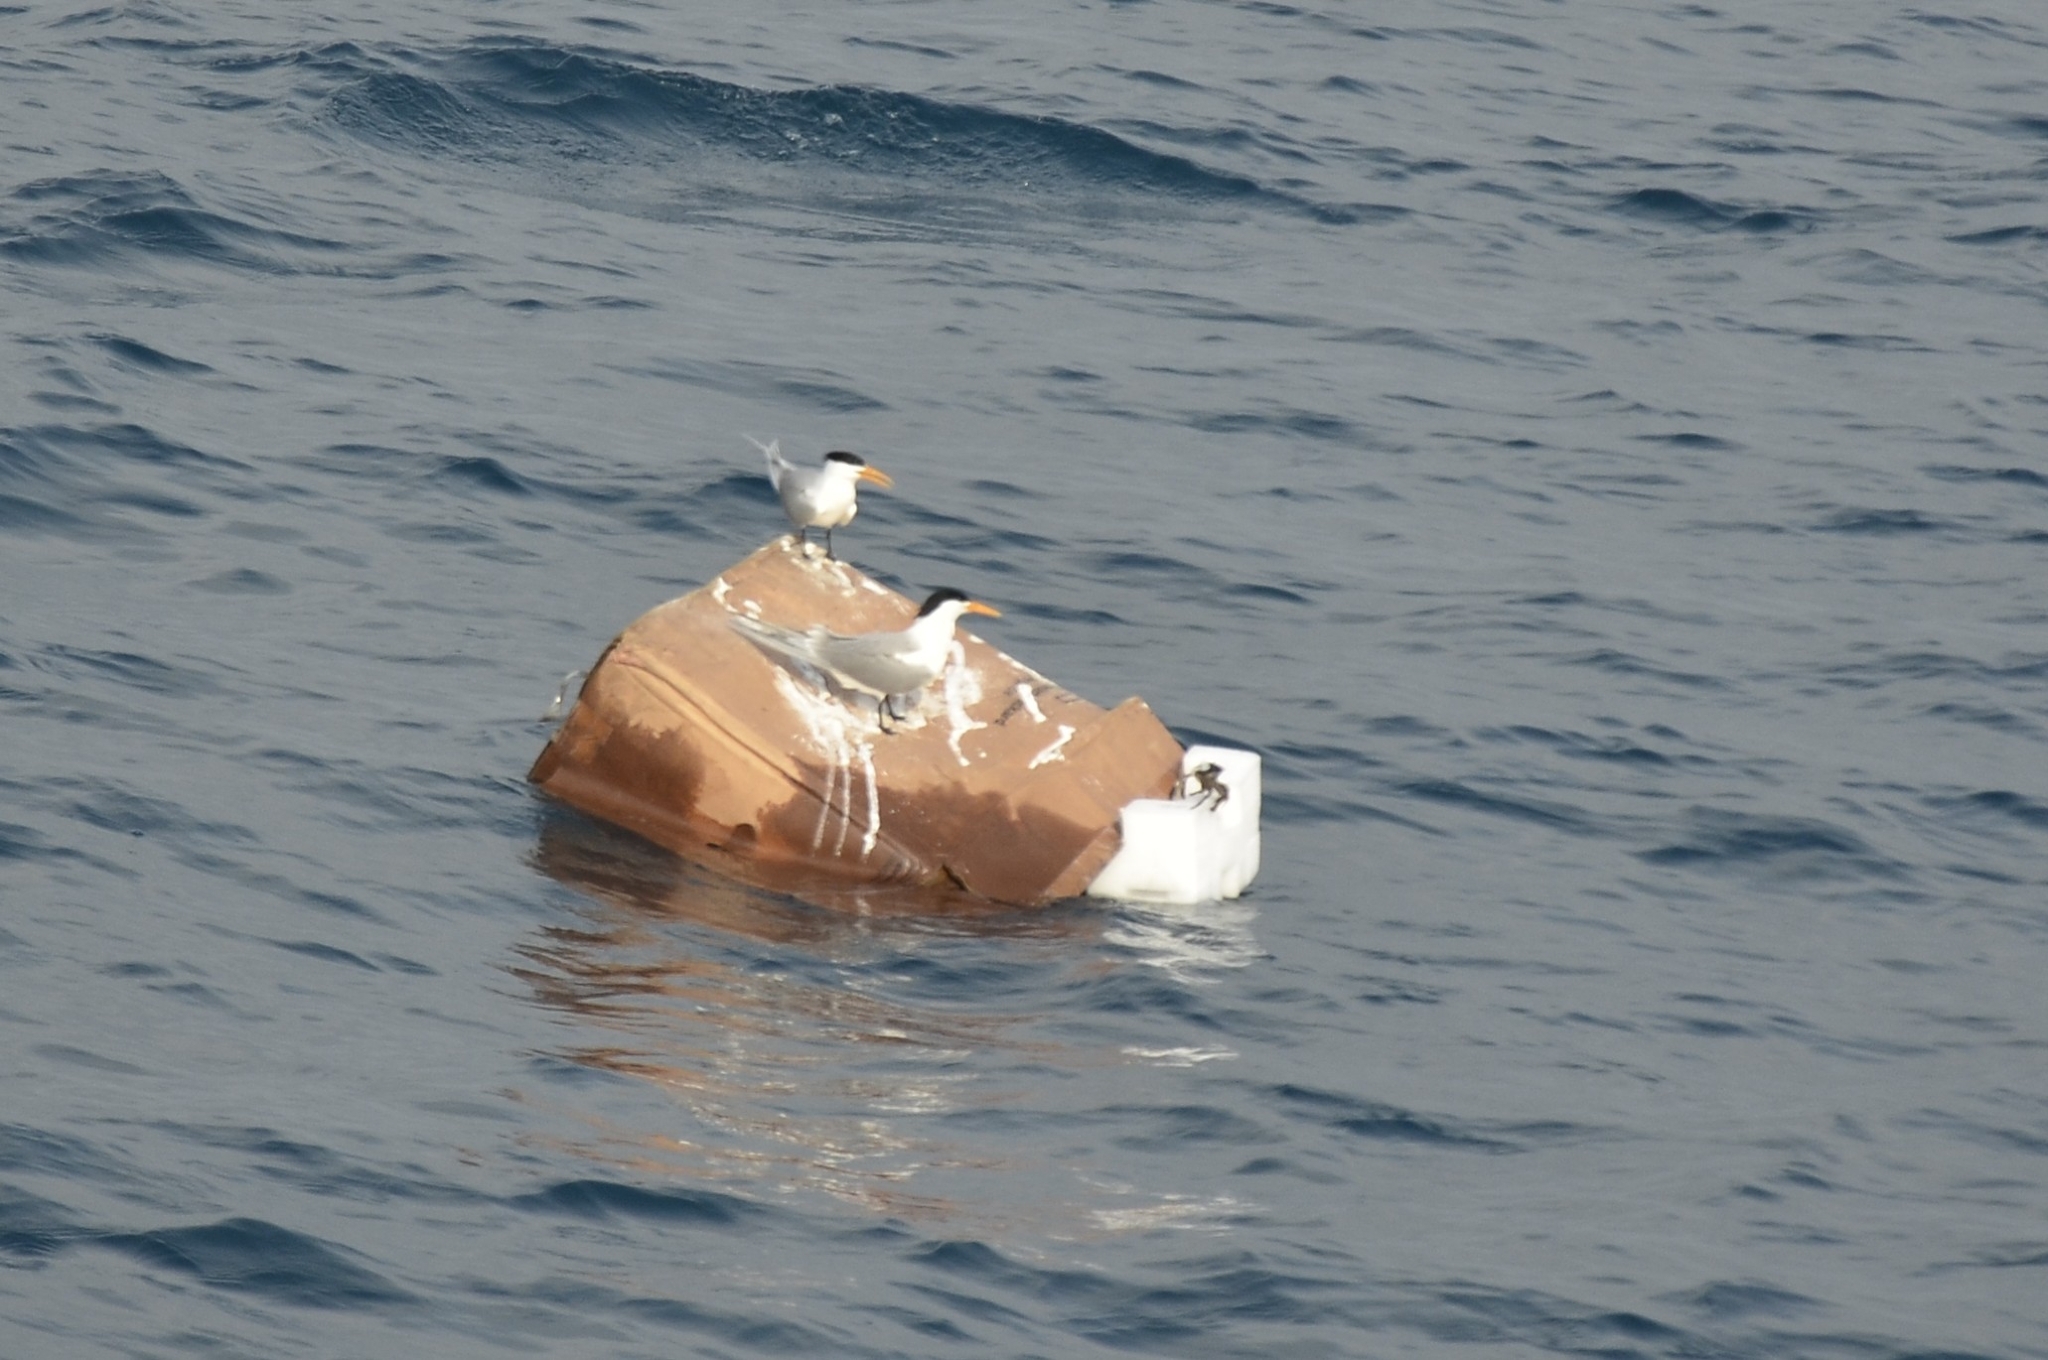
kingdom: Animalia
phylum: Chordata
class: Aves
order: Charadriiformes
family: Laridae
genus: Thalasseus
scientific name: Thalasseus bengalensis
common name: Lesser crested tern
